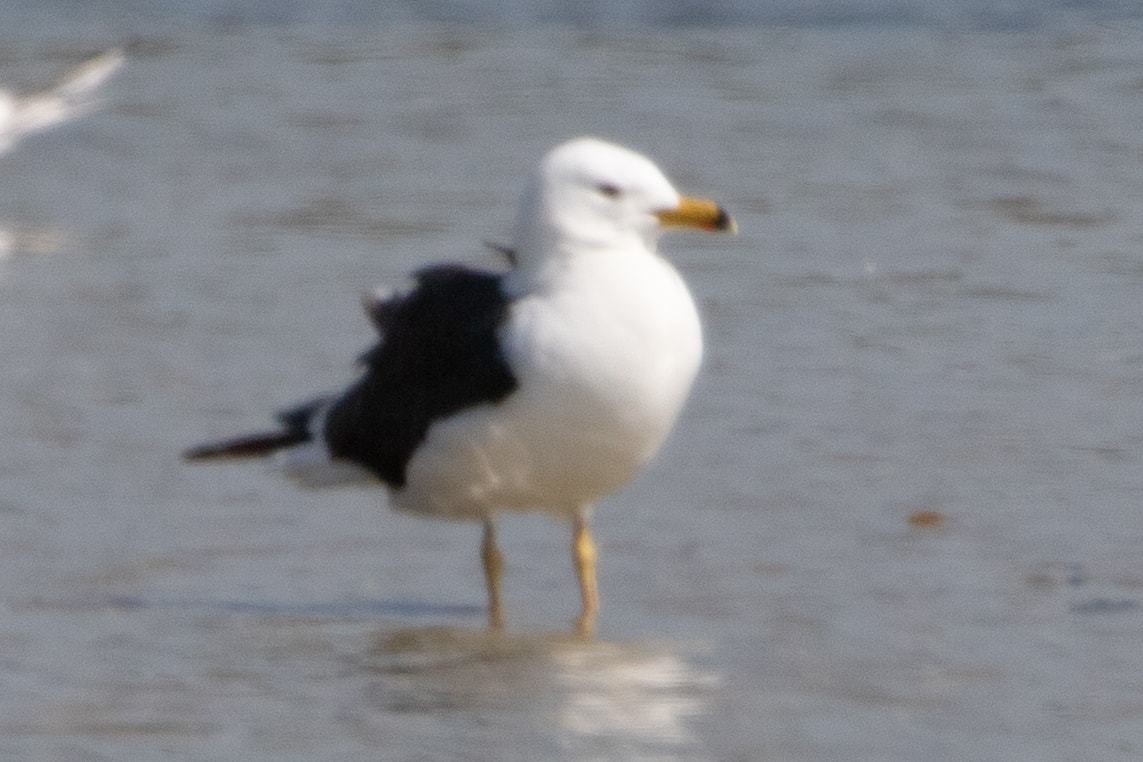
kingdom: Animalia
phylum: Chordata
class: Aves
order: Charadriiformes
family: Laridae
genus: Larus
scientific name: Larus fuscus
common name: Lesser black-backed gull
